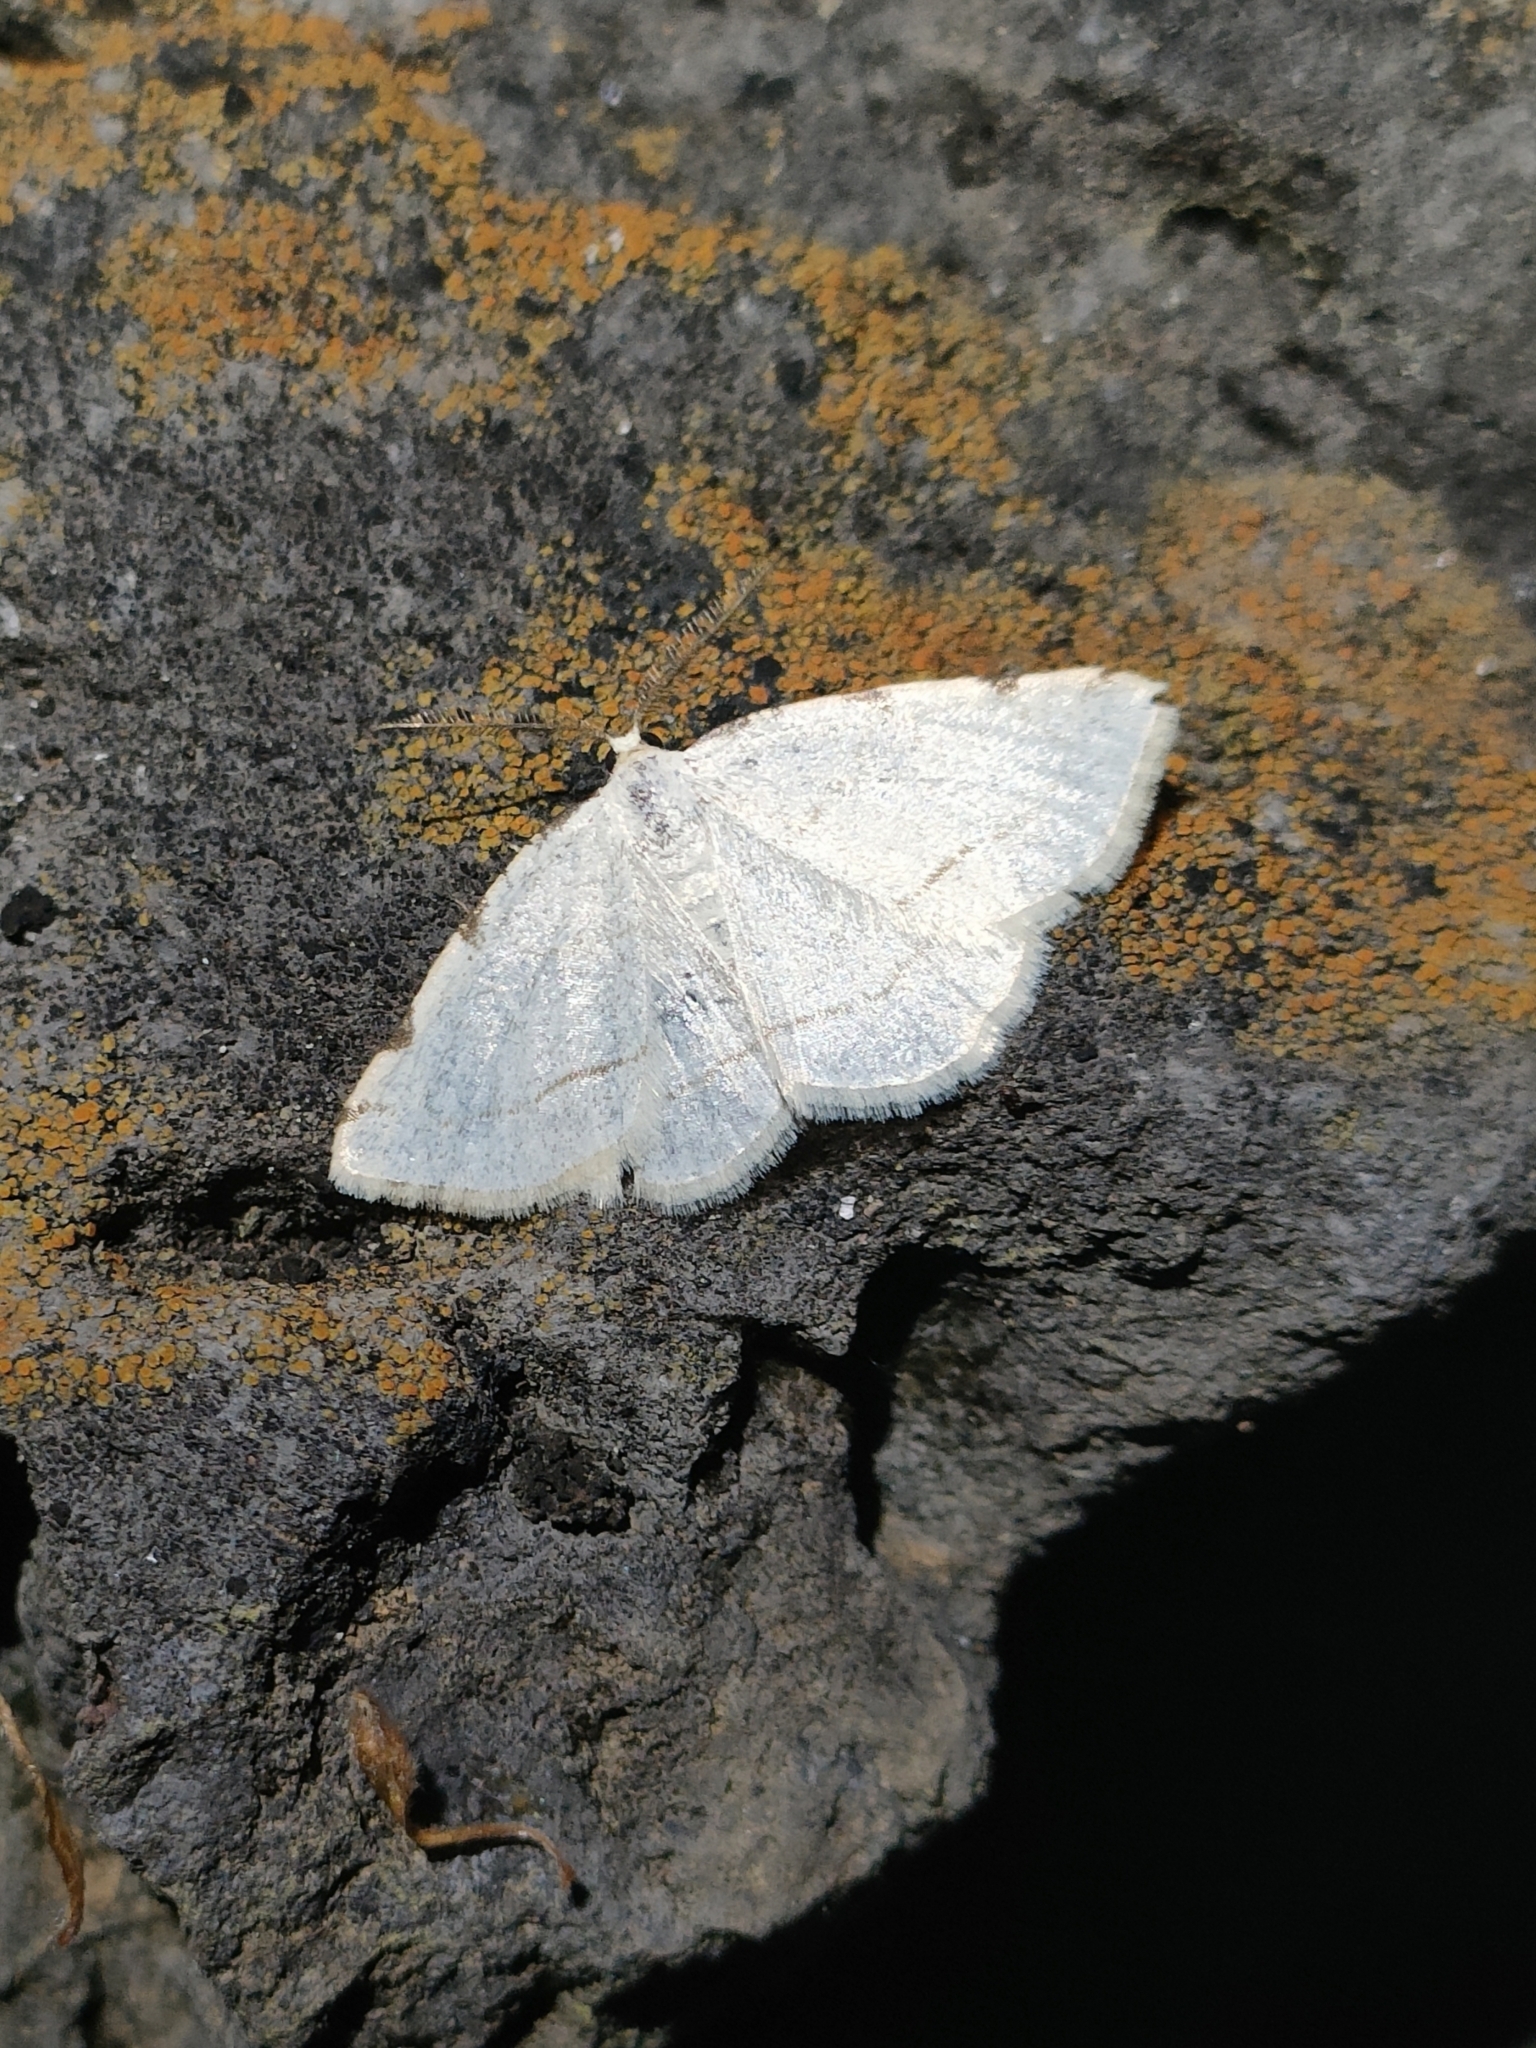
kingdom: Animalia
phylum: Arthropoda
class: Insecta
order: Lepidoptera
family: Geometridae
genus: Stegania
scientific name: Stegania trimaculata
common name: Dorset cream wave
